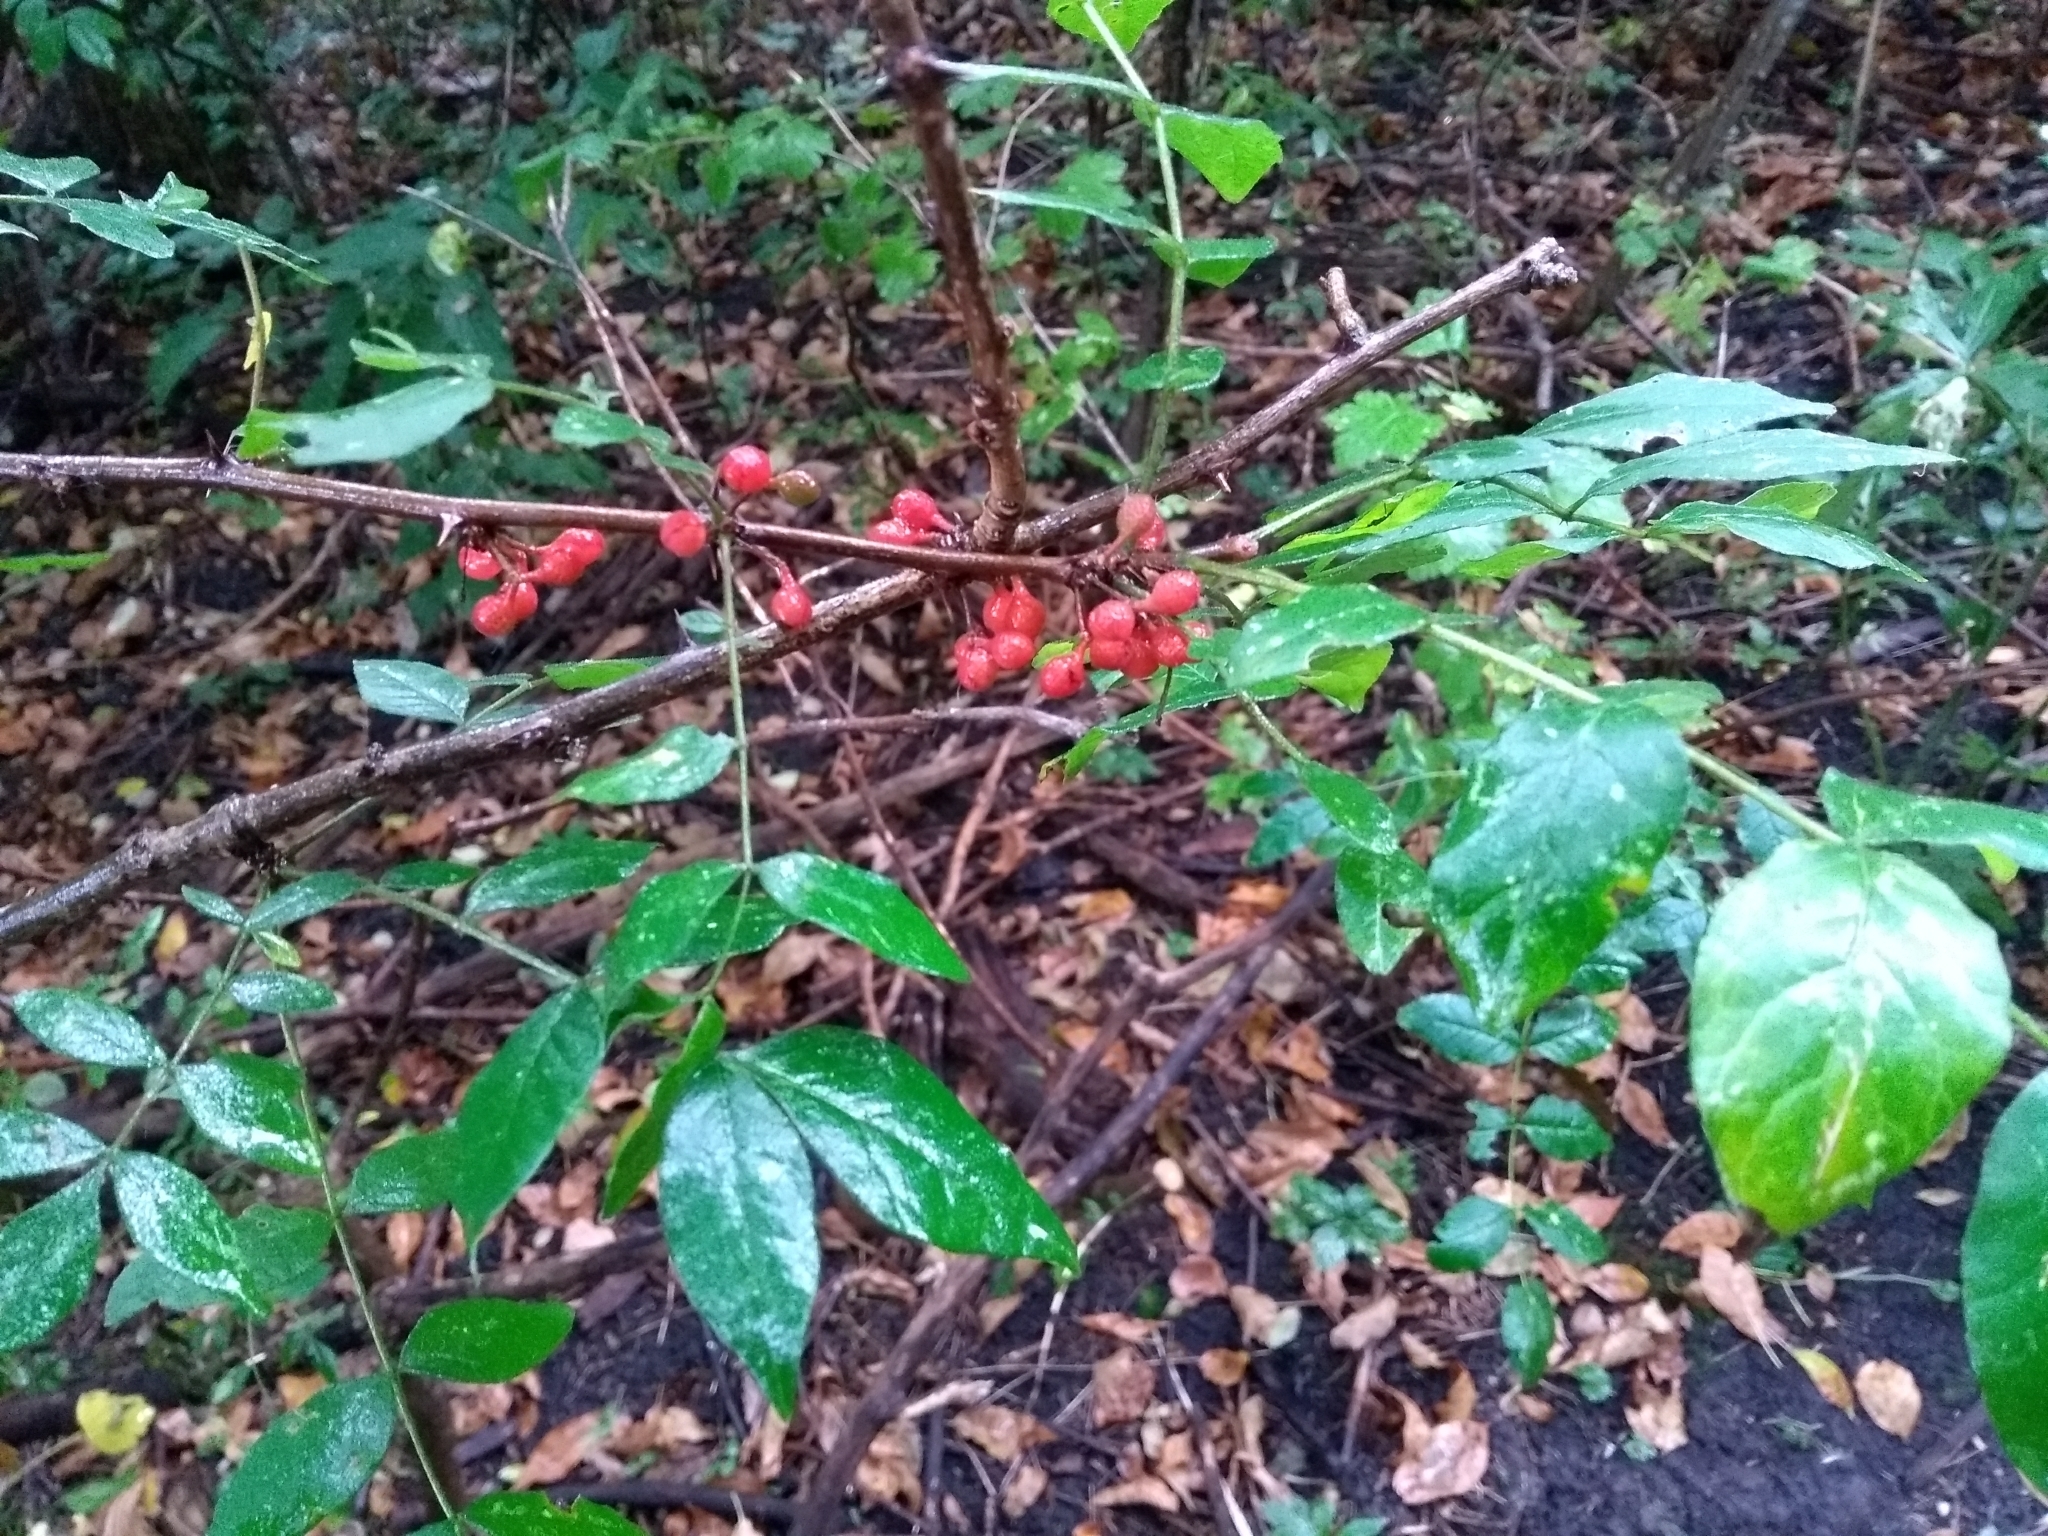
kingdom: Plantae
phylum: Tracheophyta
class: Magnoliopsida
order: Sapindales
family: Rutaceae
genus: Zanthoxylum
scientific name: Zanthoxylum americanum
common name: Northern prickly-ash
